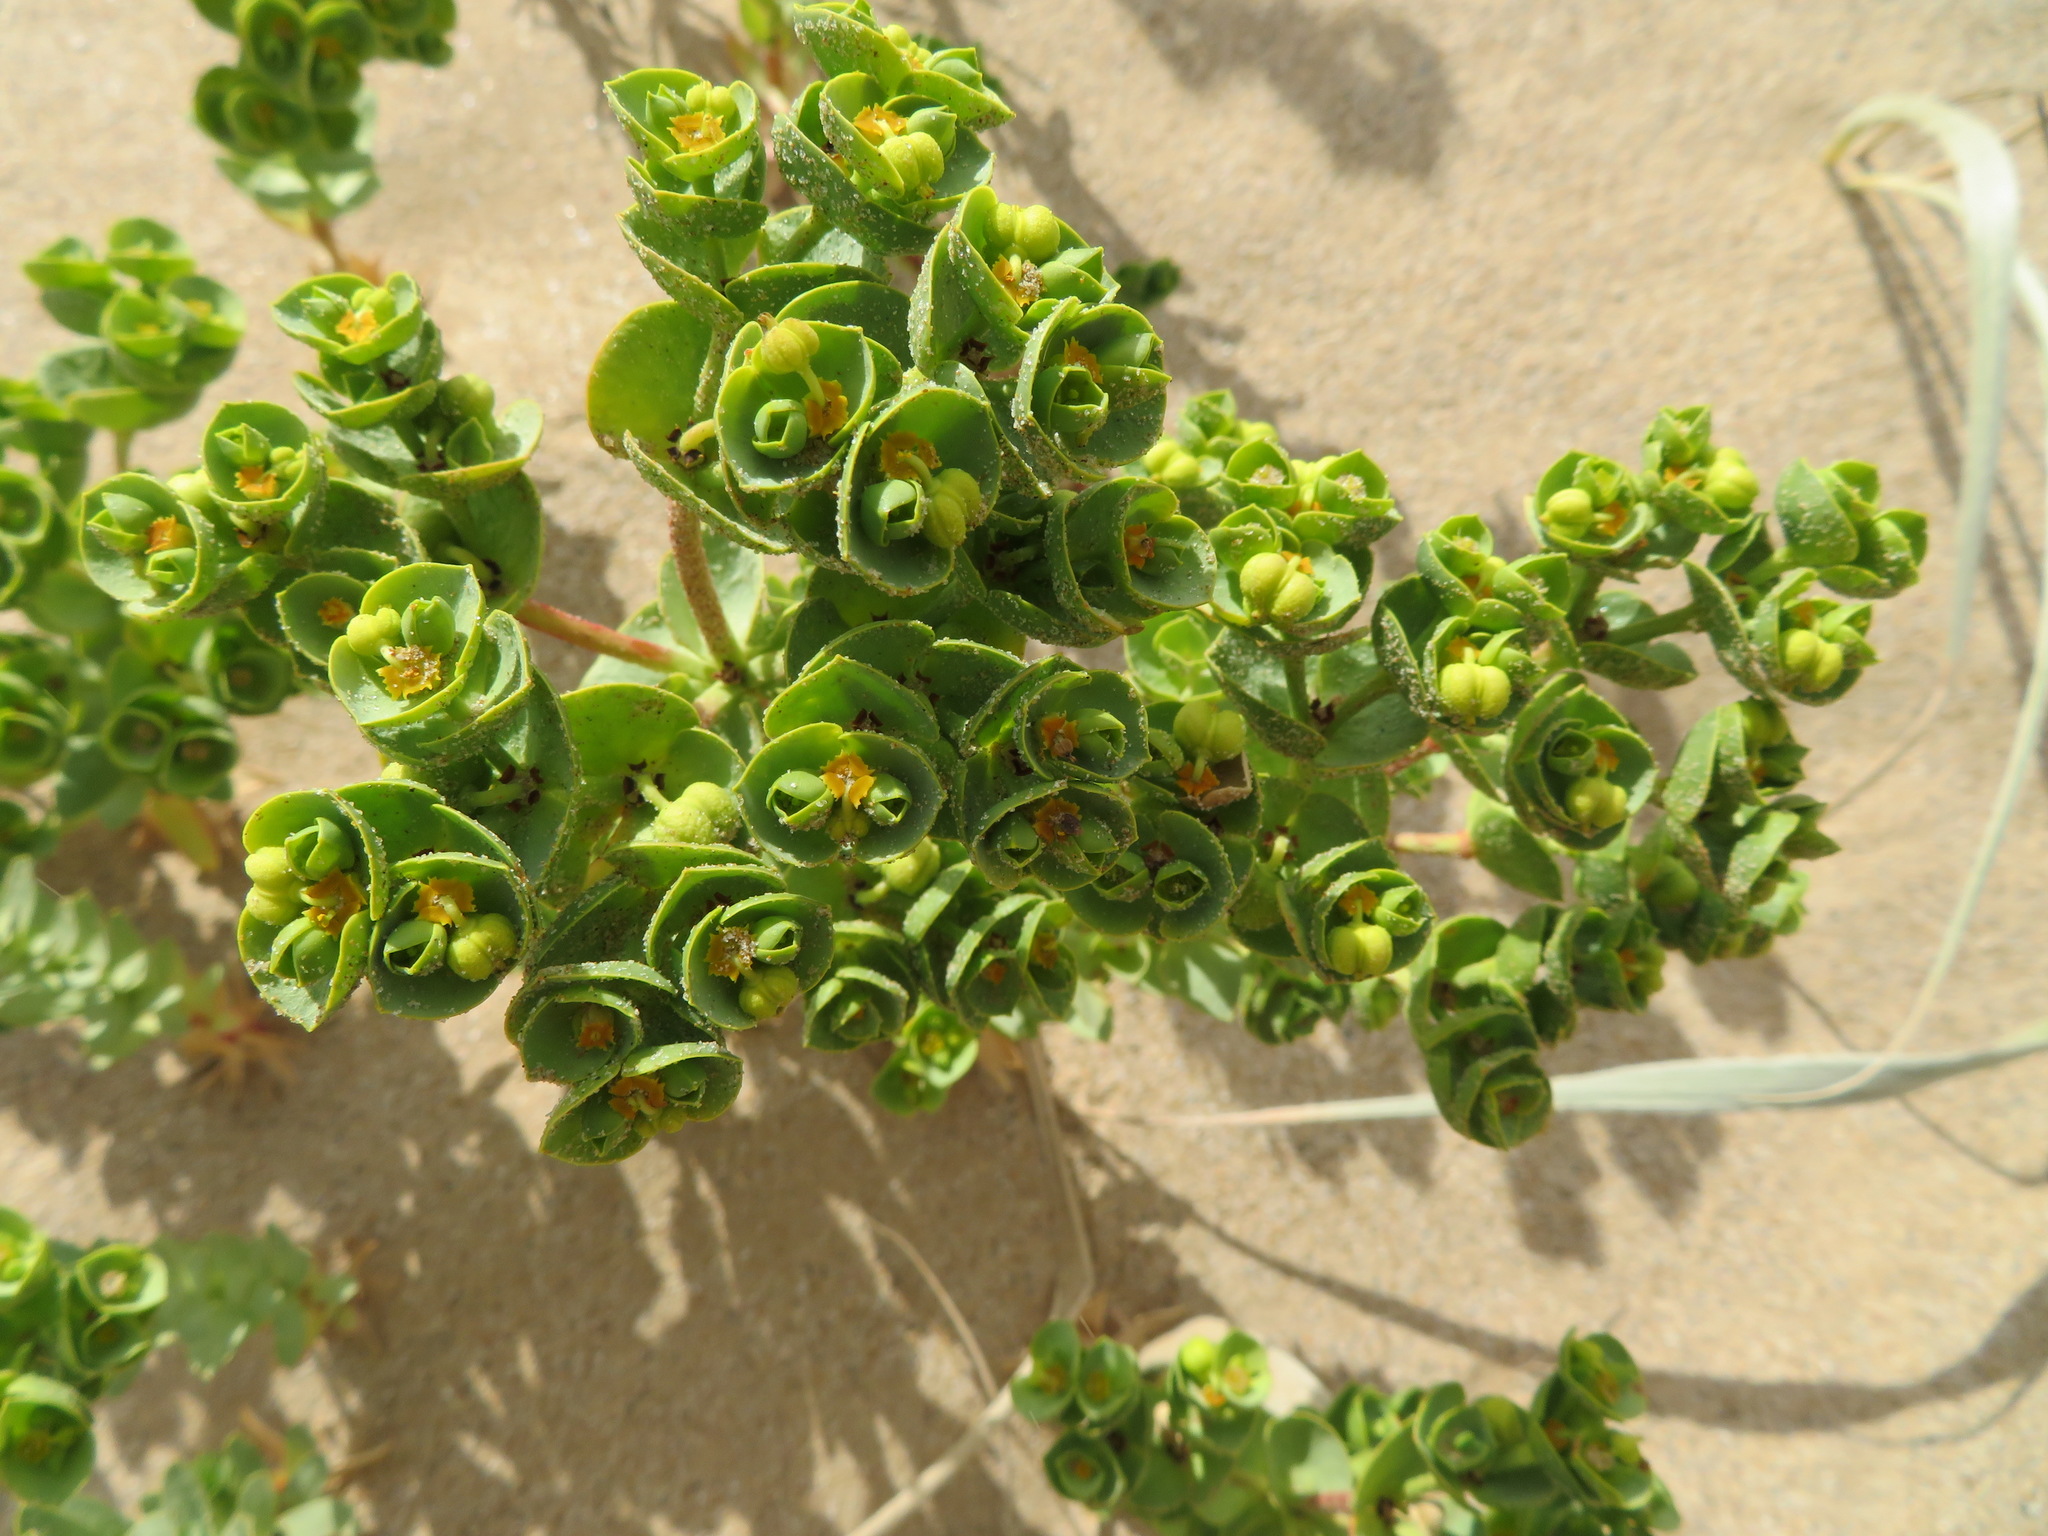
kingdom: Plantae
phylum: Tracheophyta
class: Magnoliopsida
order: Malpighiales
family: Euphorbiaceae
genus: Euphorbia
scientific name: Euphorbia paralias
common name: Sea spurge
